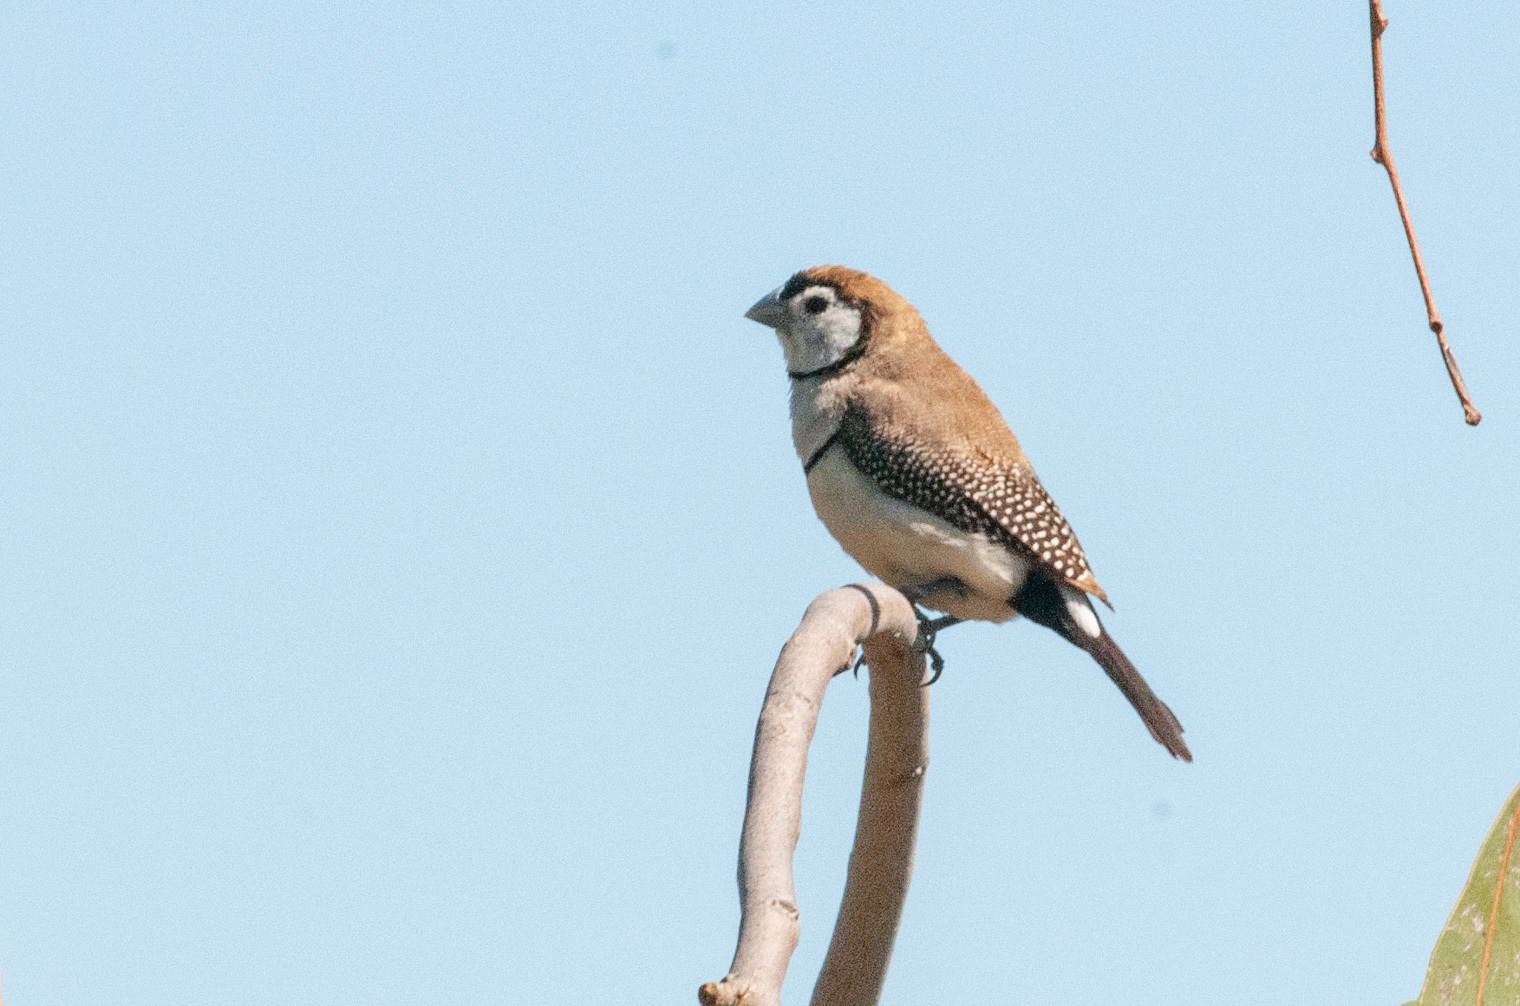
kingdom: Animalia
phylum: Chordata
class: Aves
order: Passeriformes
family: Estrildidae
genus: Taeniopygia
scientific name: Taeniopygia bichenovii
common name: Double-barred finch
